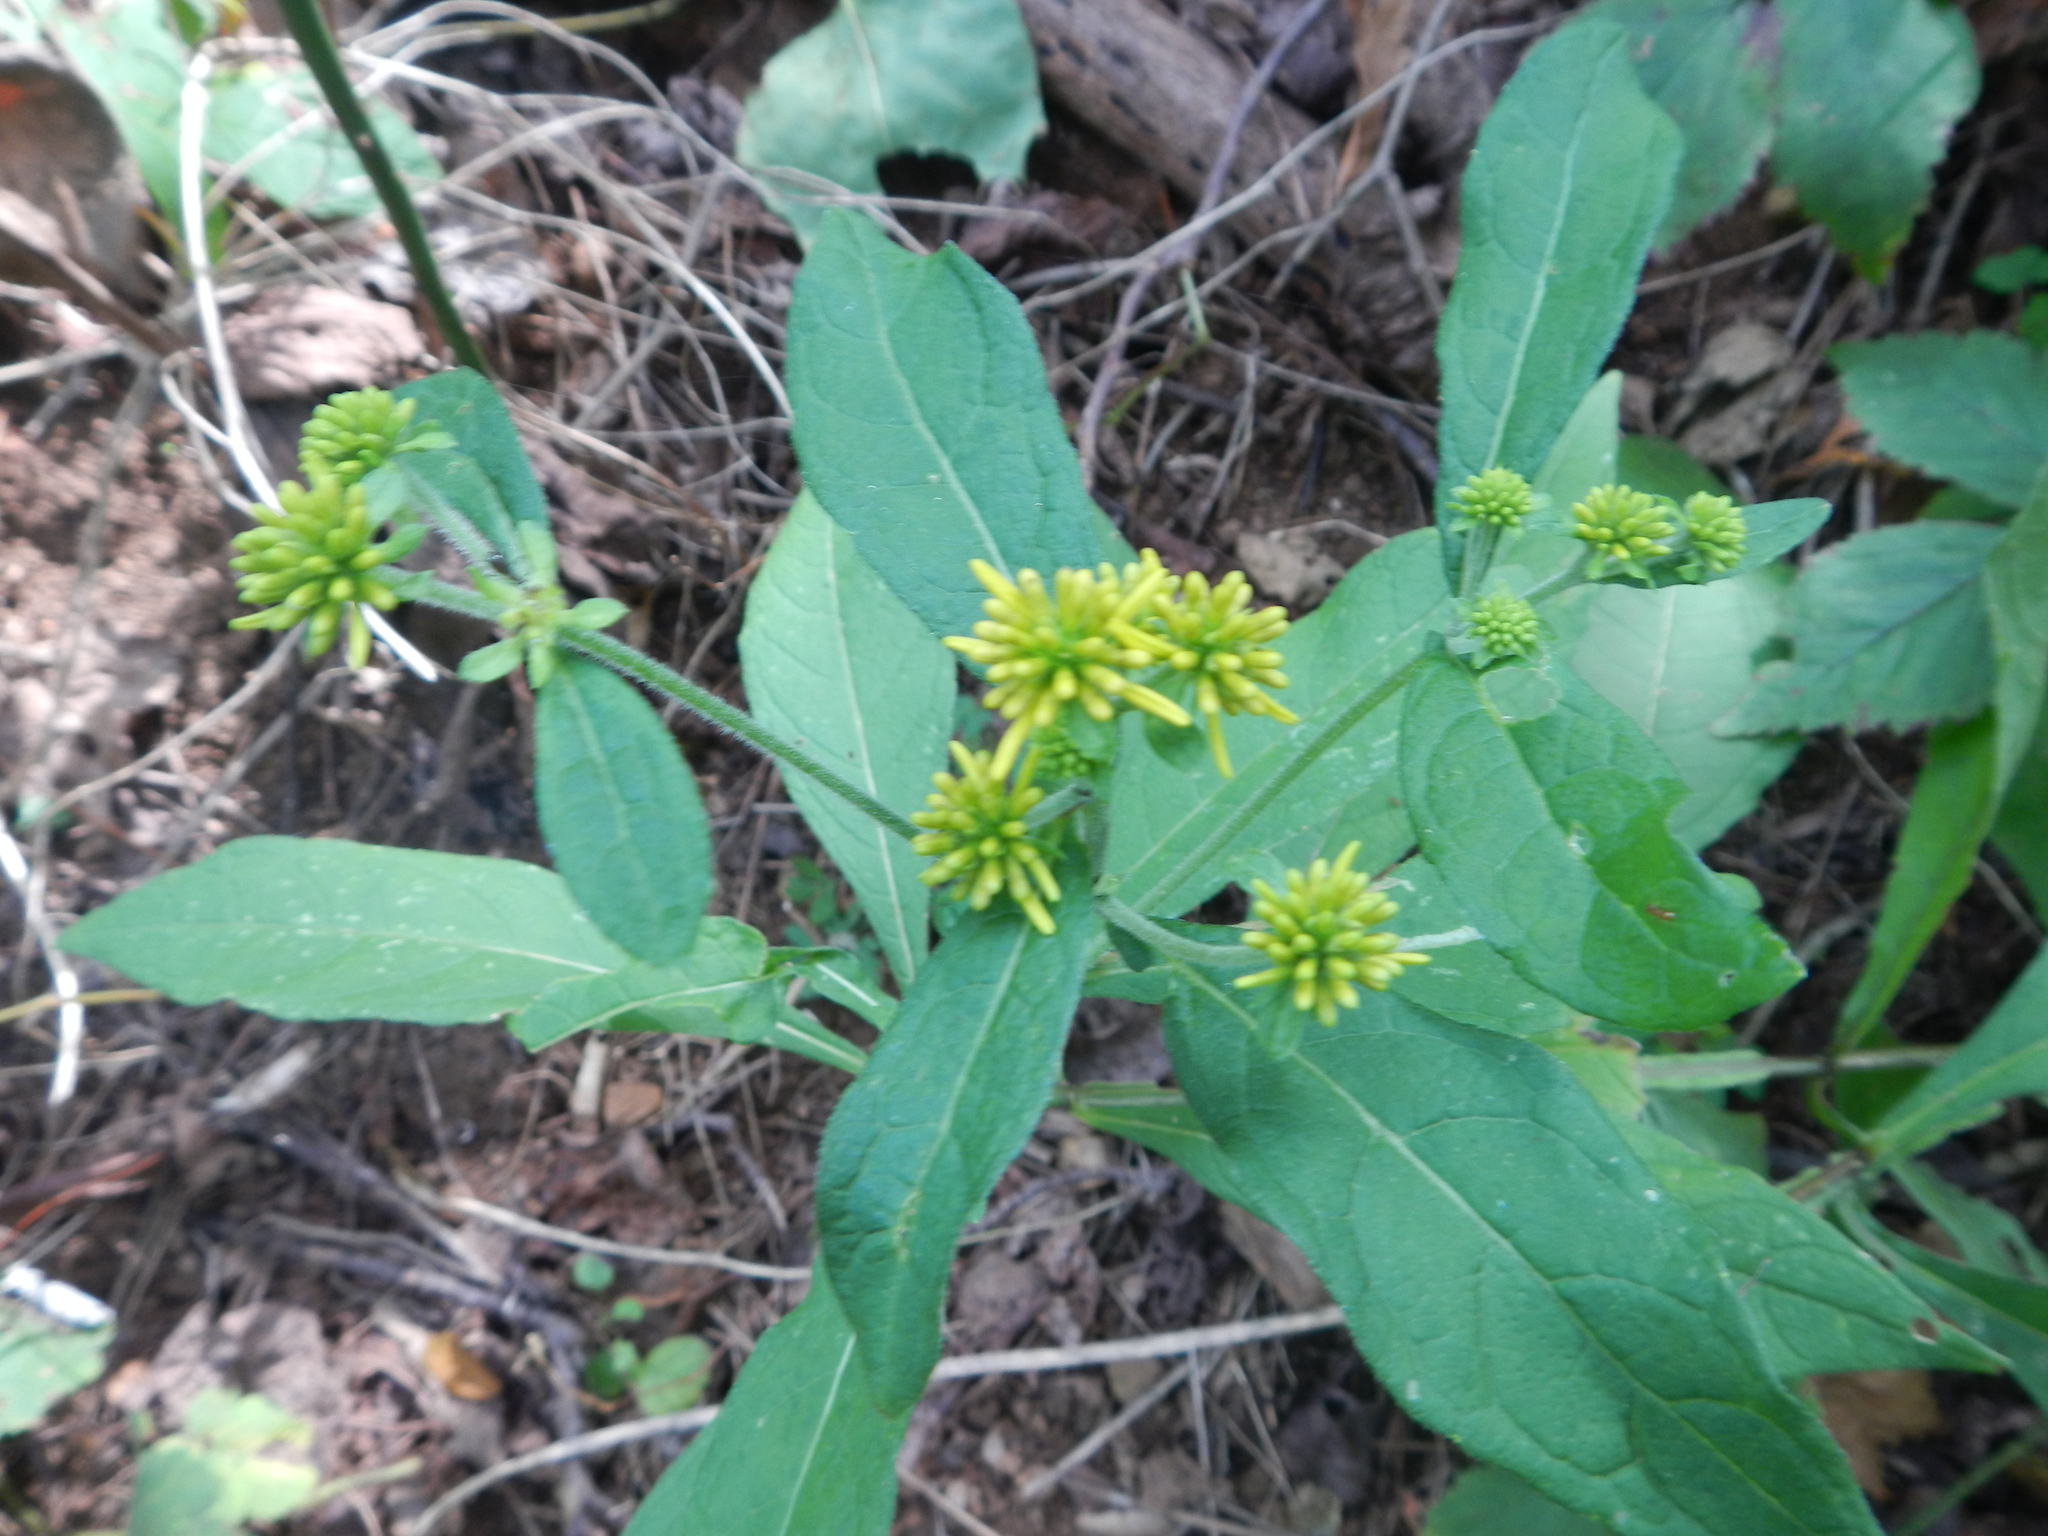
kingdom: Plantae
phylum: Tracheophyta
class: Magnoliopsida
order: Asterales
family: Asteraceae
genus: Verbesina
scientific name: Verbesina alternifolia
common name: Wingstem
